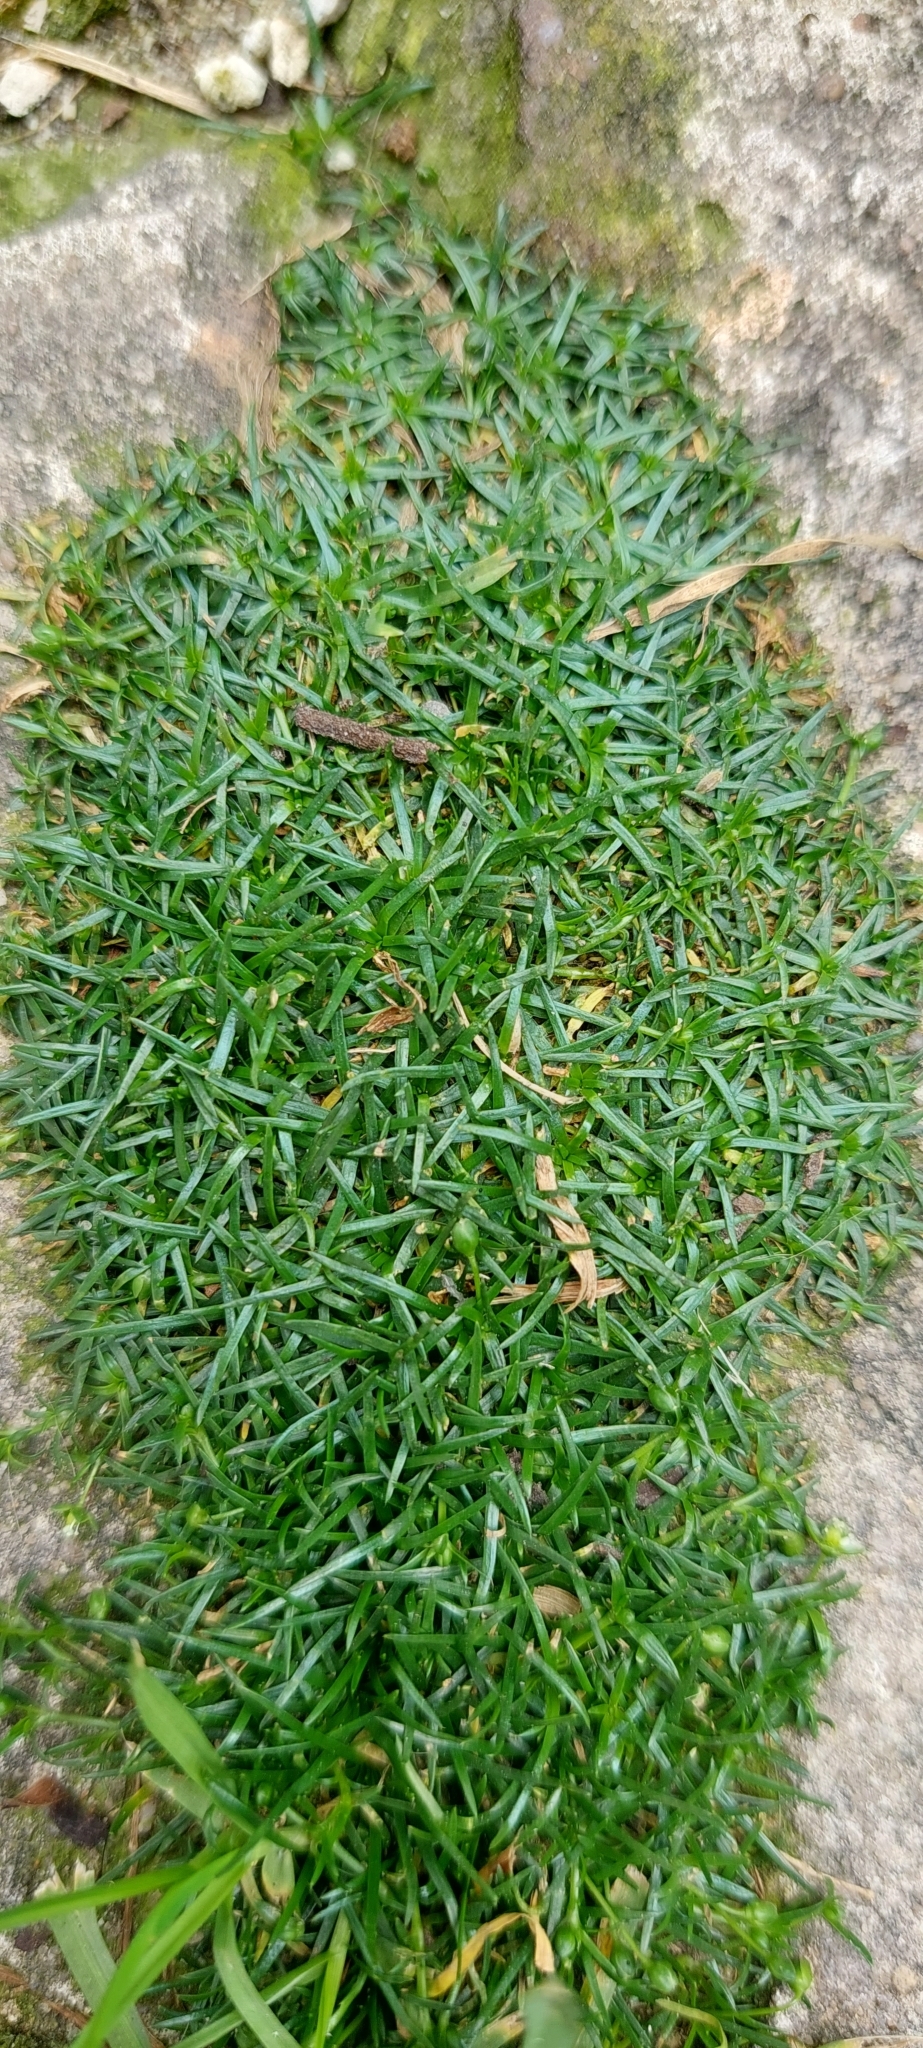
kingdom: Plantae
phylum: Tracheophyta
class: Magnoliopsida
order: Caryophyllales
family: Caryophyllaceae
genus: Sagina
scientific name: Sagina procumbens
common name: Procumbent pearlwort
